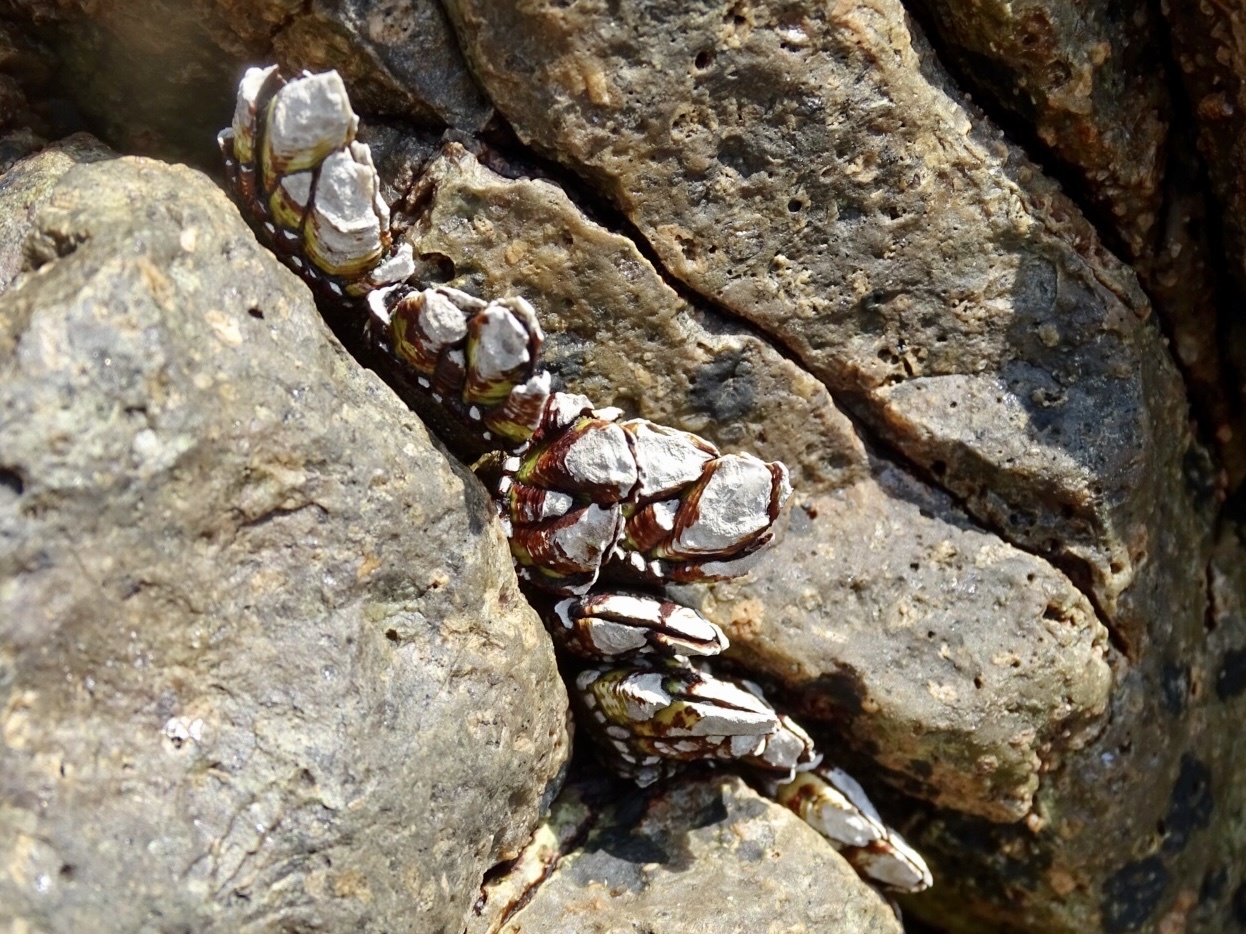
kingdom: Animalia
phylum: Arthropoda
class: Maxillopoda
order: Pedunculata
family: Pollicipedidae
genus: Capitulum
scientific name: Capitulum mitella
